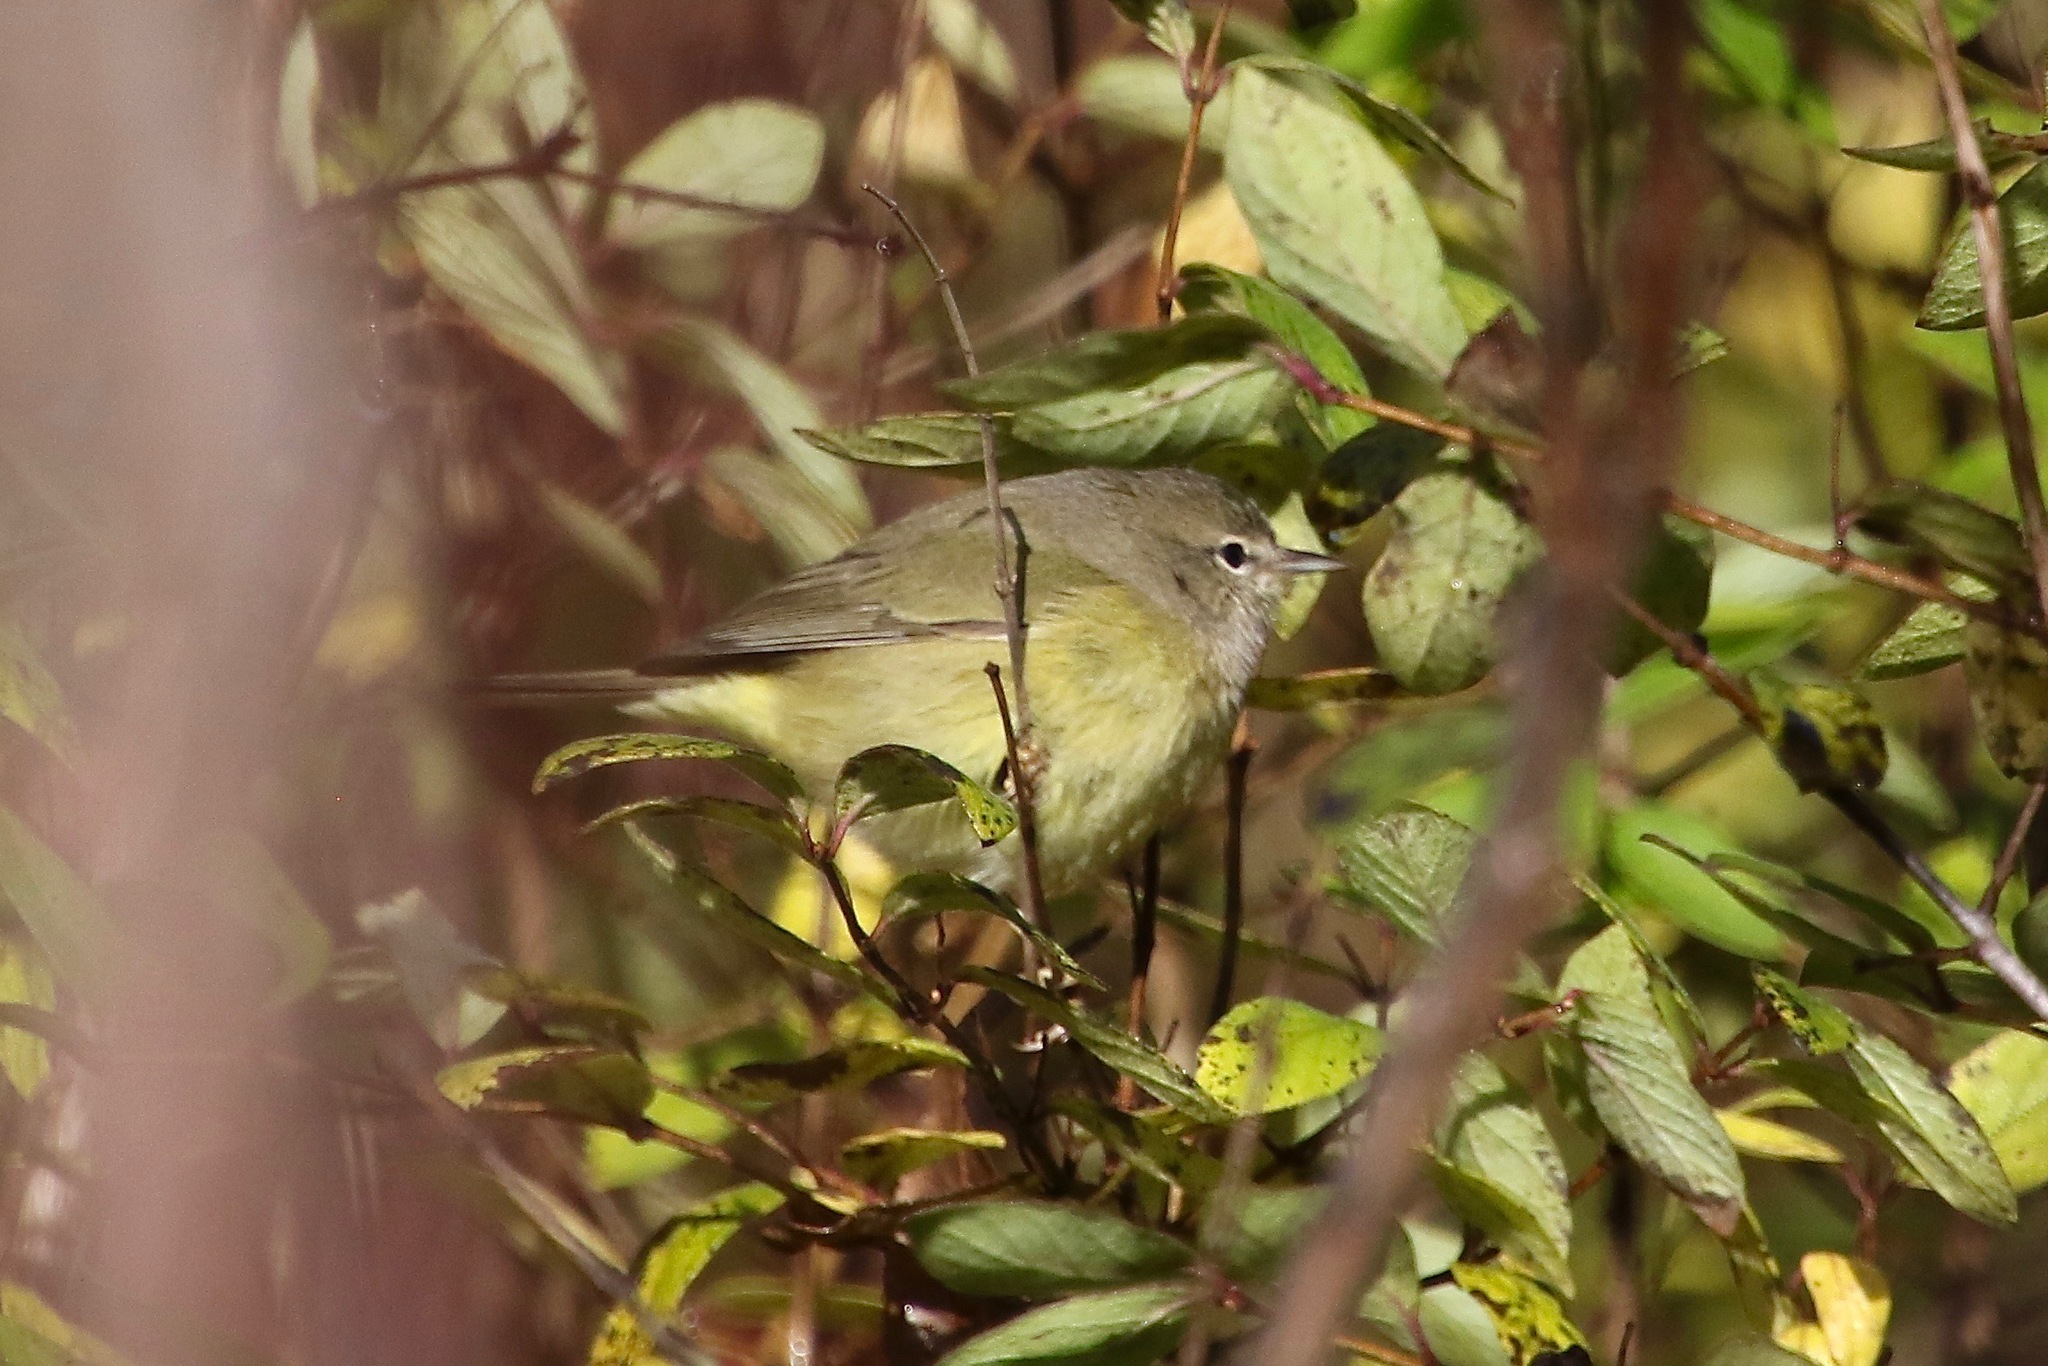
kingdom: Animalia
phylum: Chordata
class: Aves
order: Passeriformes
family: Parulidae
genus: Leiothlypis
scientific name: Leiothlypis celata
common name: Orange-crowned warbler
